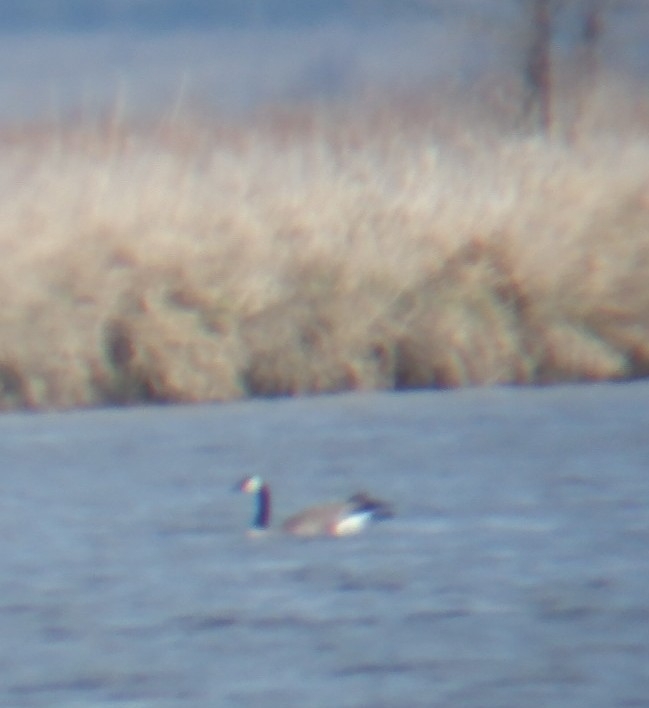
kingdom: Animalia
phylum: Chordata
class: Aves
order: Anseriformes
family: Anatidae
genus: Branta
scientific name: Branta canadensis
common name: Canada goose
